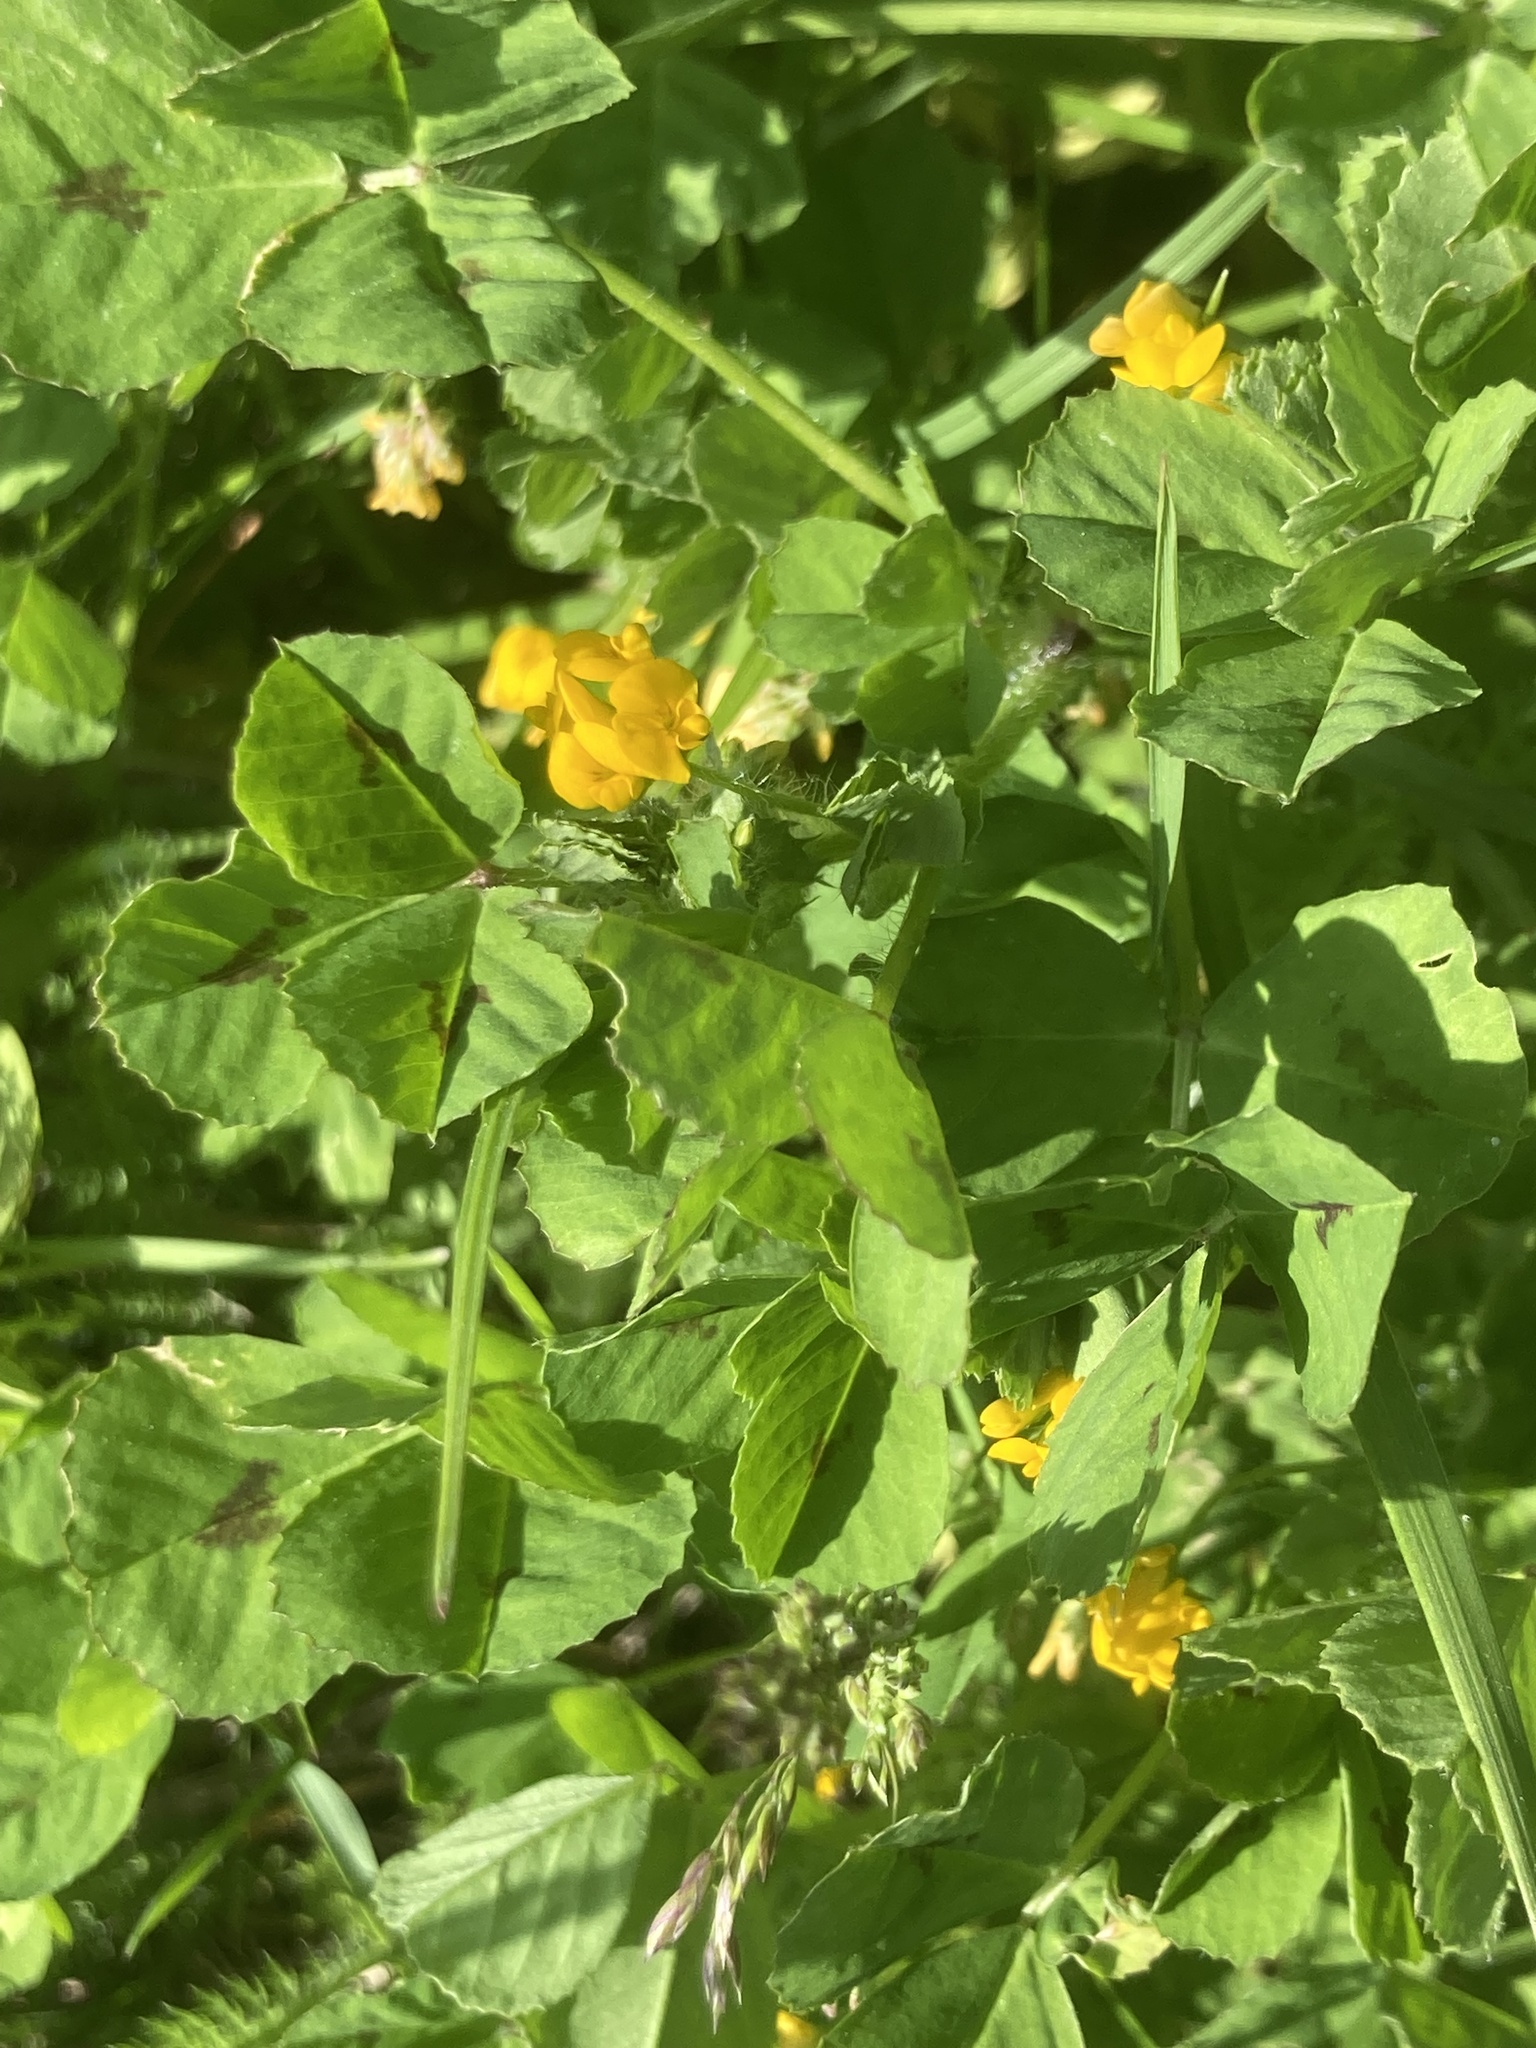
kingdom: Plantae
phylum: Tracheophyta
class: Magnoliopsida
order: Fabales
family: Fabaceae
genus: Medicago
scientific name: Medicago arabica
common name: Spotted medick
